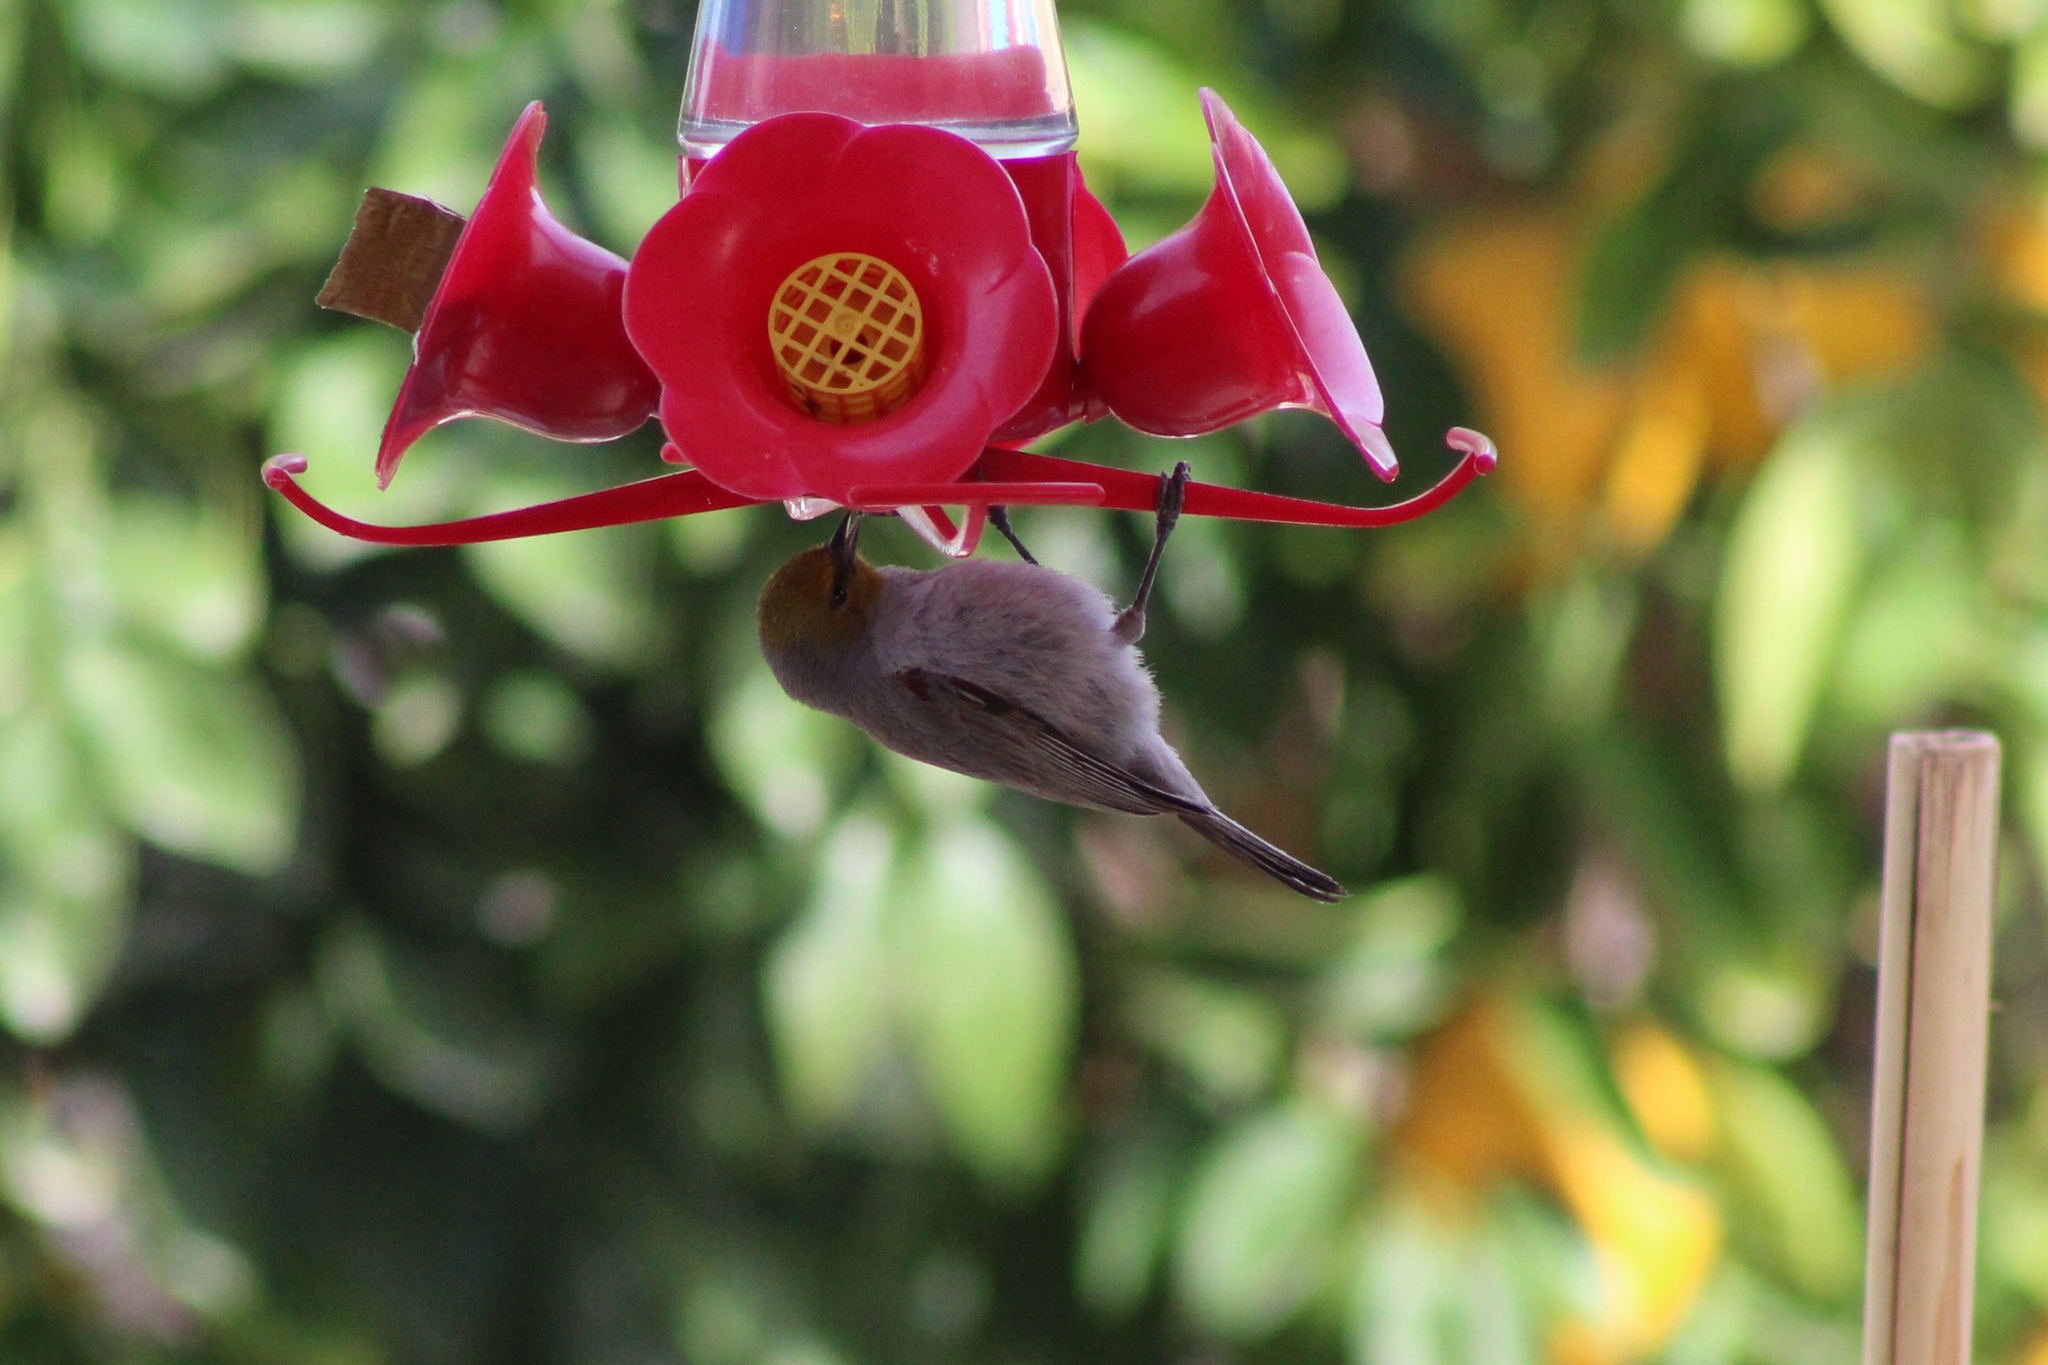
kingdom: Animalia
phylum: Chordata
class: Aves
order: Passeriformes
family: Remizidae
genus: Auriparus
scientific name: Auriparus flaviceps
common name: Verdin
